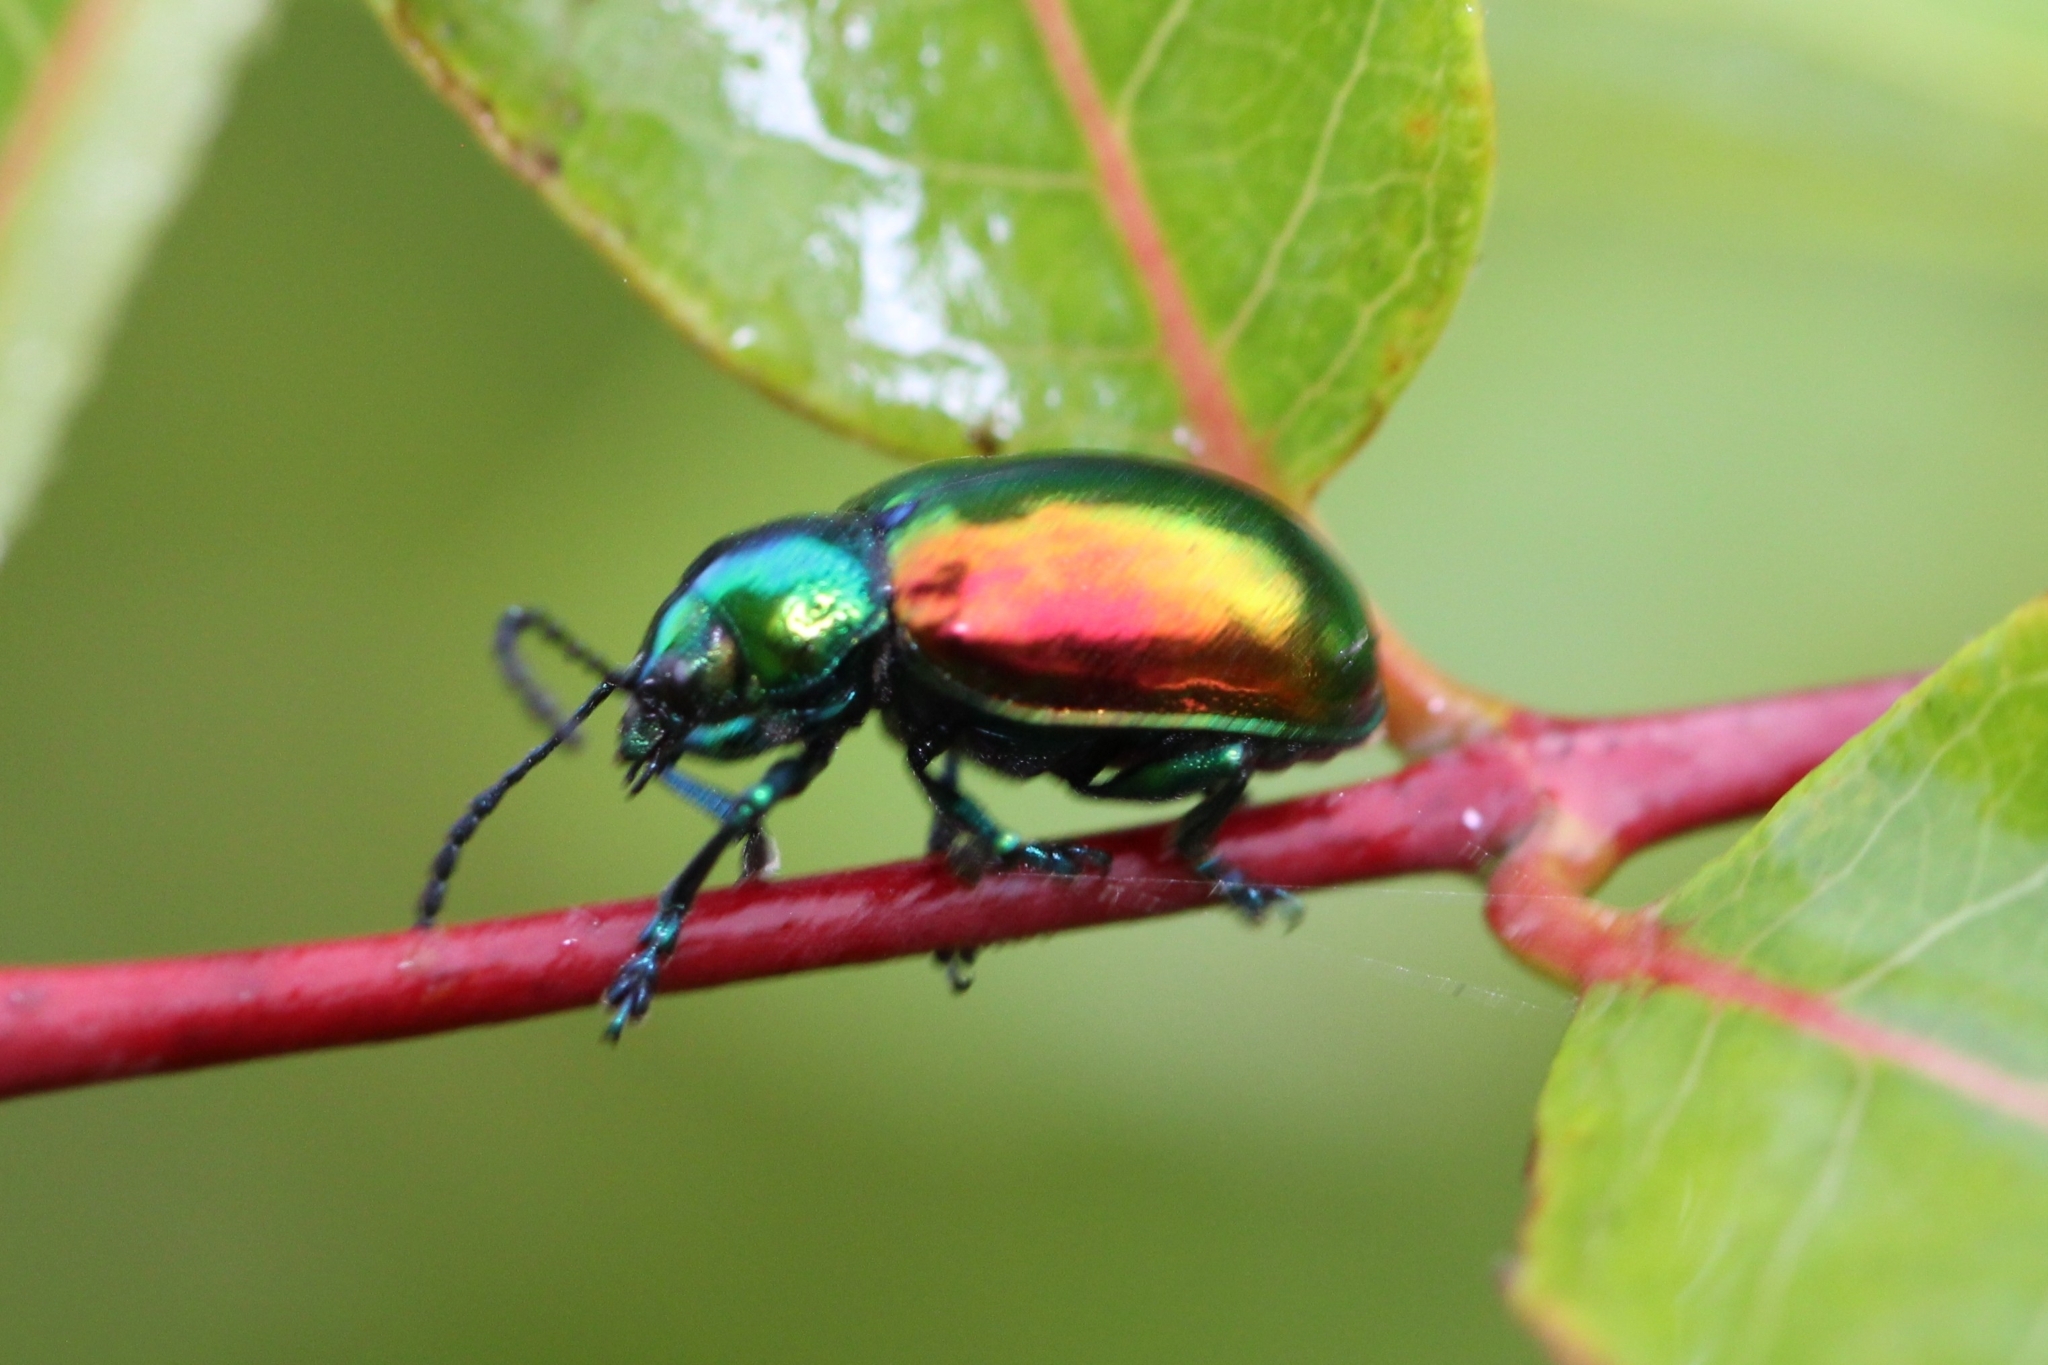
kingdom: Animalia
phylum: Arthropoda
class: Insecta
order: Coleoptera
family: Chrysomelidae
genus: Chrysochus
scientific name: Chrysochus auratus
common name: Dogbane leaf beetle
